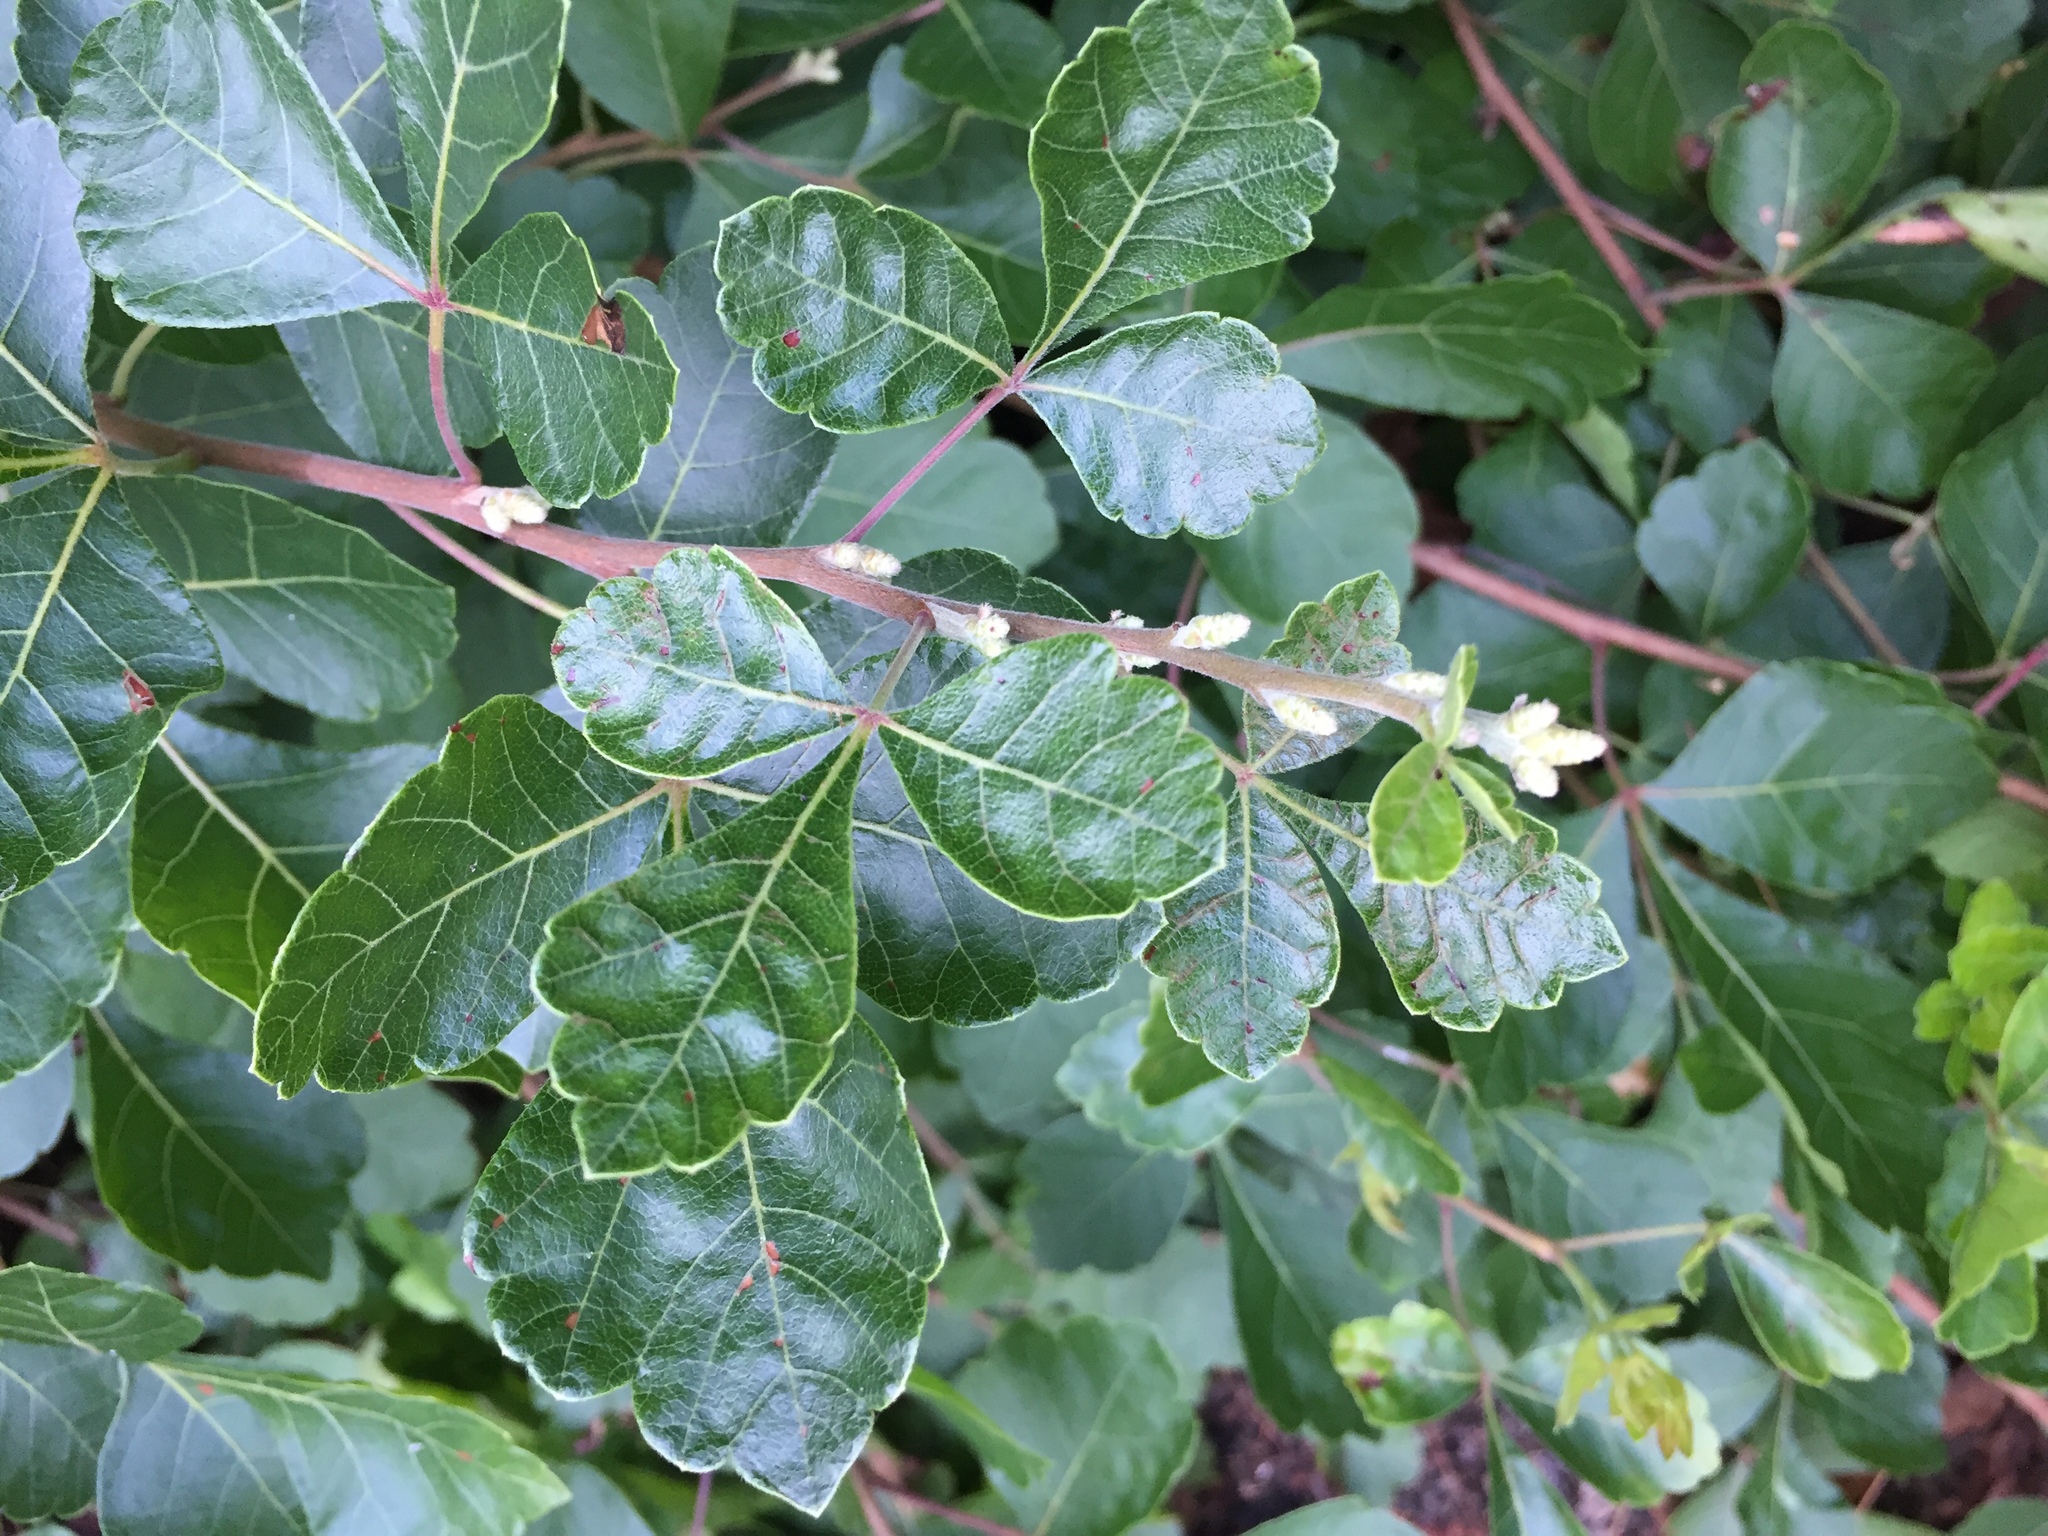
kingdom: Plantae
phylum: Tracheophyta
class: Magnoliopsida
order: Sapindales
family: Anacardiaceae
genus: Rhus
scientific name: Rhus aromatica
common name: Aromatic sumac
